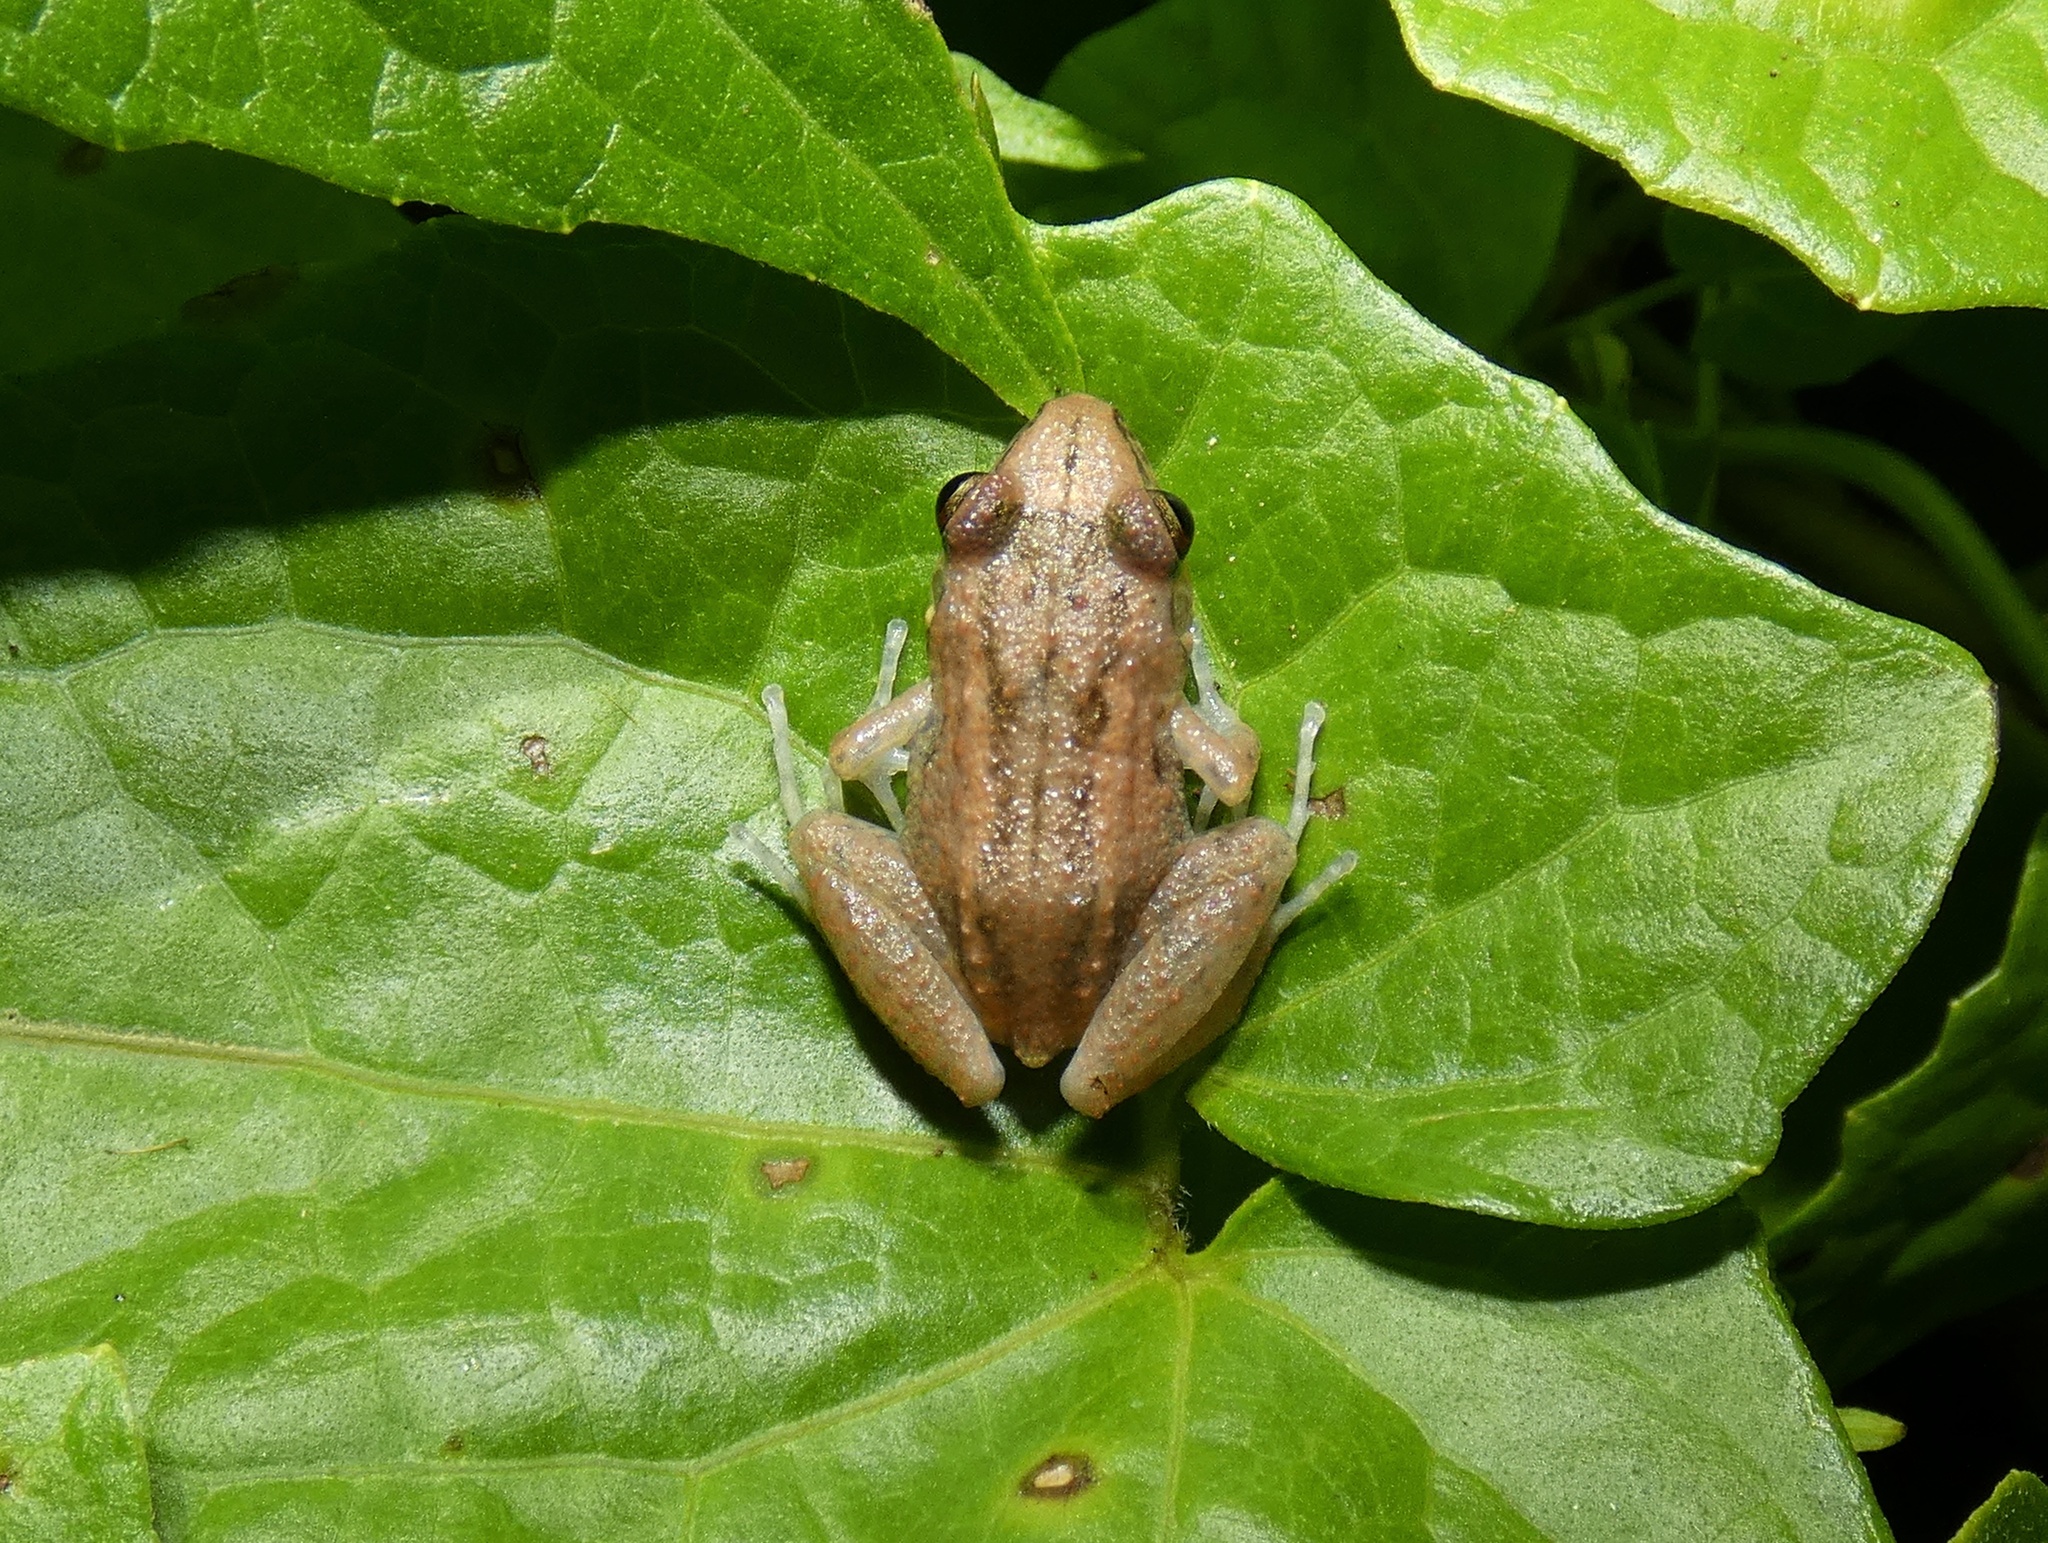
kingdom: Animalia
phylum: Chordata
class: Amphibia
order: Anura
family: Eleutherodactylidae
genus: Eleutherodactylus
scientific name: Eleutherodactylus planirostris
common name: Greenhouse frog
